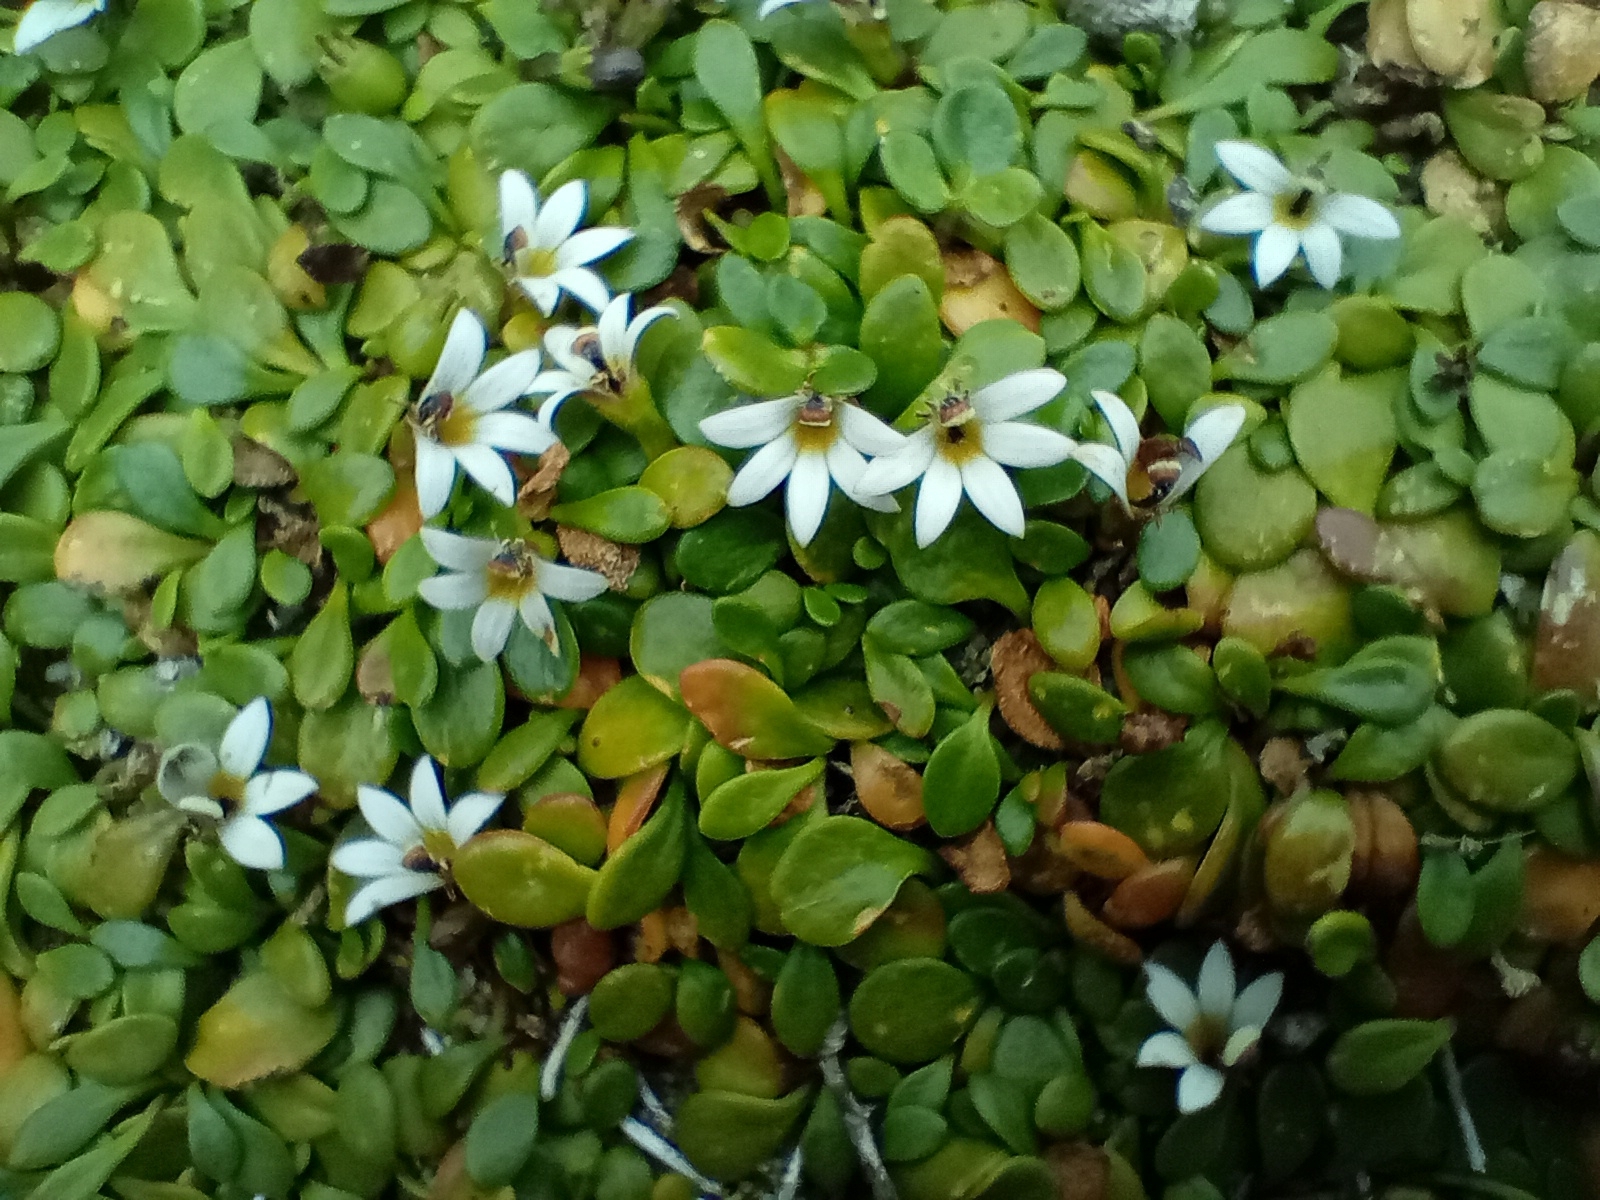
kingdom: Plantae
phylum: Tracheophyta
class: Magnoliopsida
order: Asterales
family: Goodeniaceae
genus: Goodenia
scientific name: Goodenia radicans
